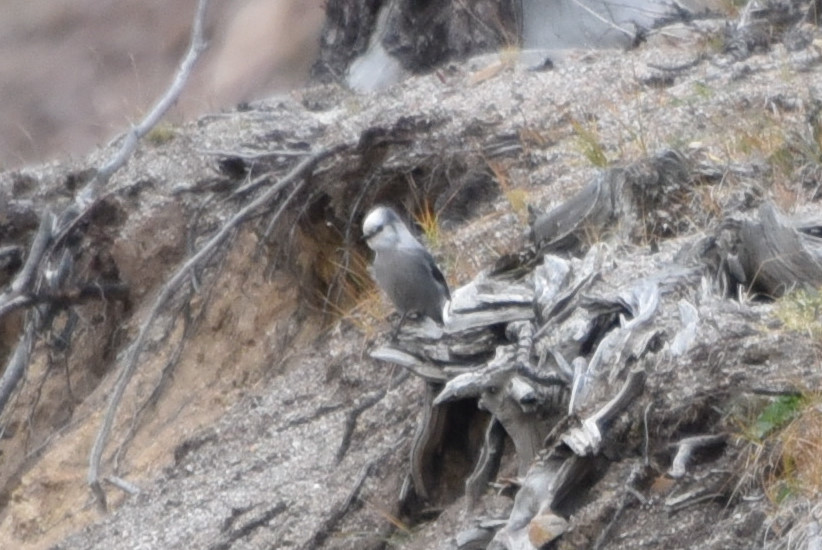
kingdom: Animalia
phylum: Chordata
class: Aves
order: Passeriformes
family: Corvidae
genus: Perisoreus
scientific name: Perisoreus canadensis
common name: Gray jay
